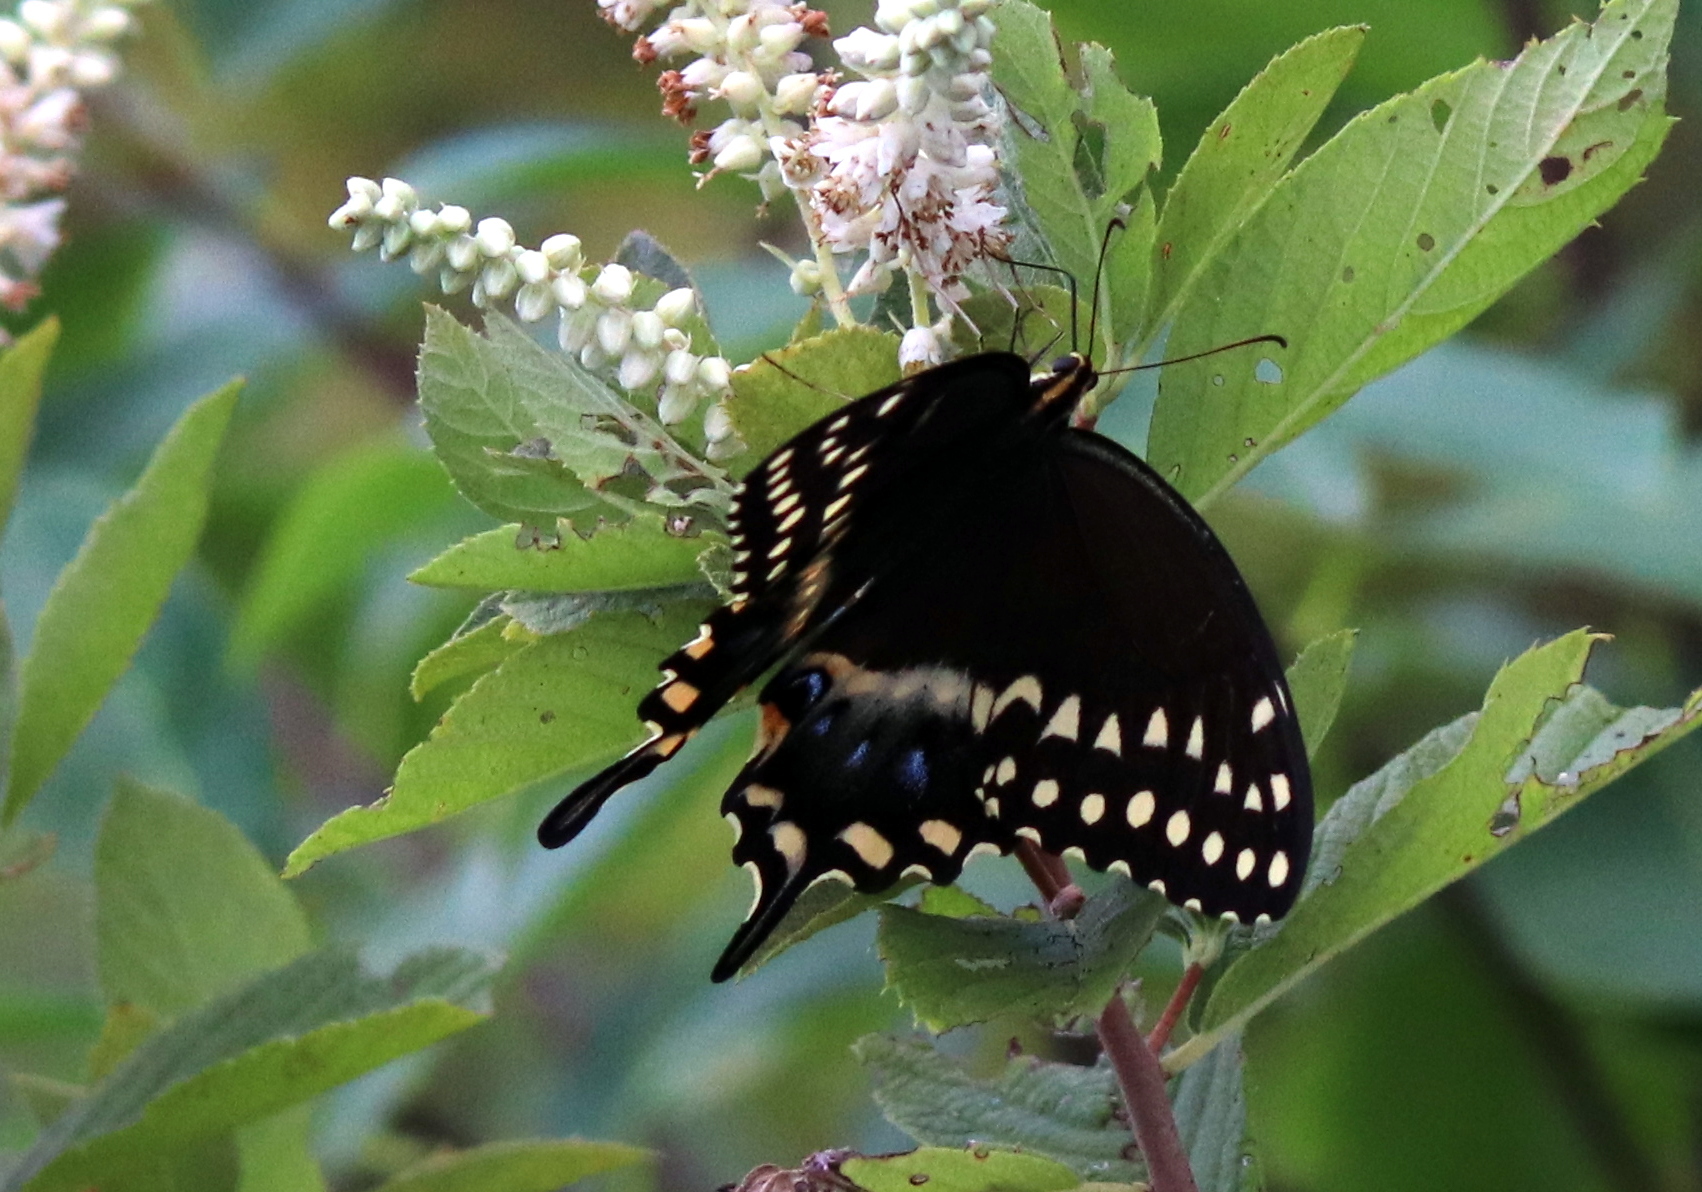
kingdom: Animalia
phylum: Arthropoda
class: Insecta
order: Lepidoptera
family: Papilionidae
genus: Papilio
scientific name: Papilio palamedes
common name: Palamedes swallowtail
